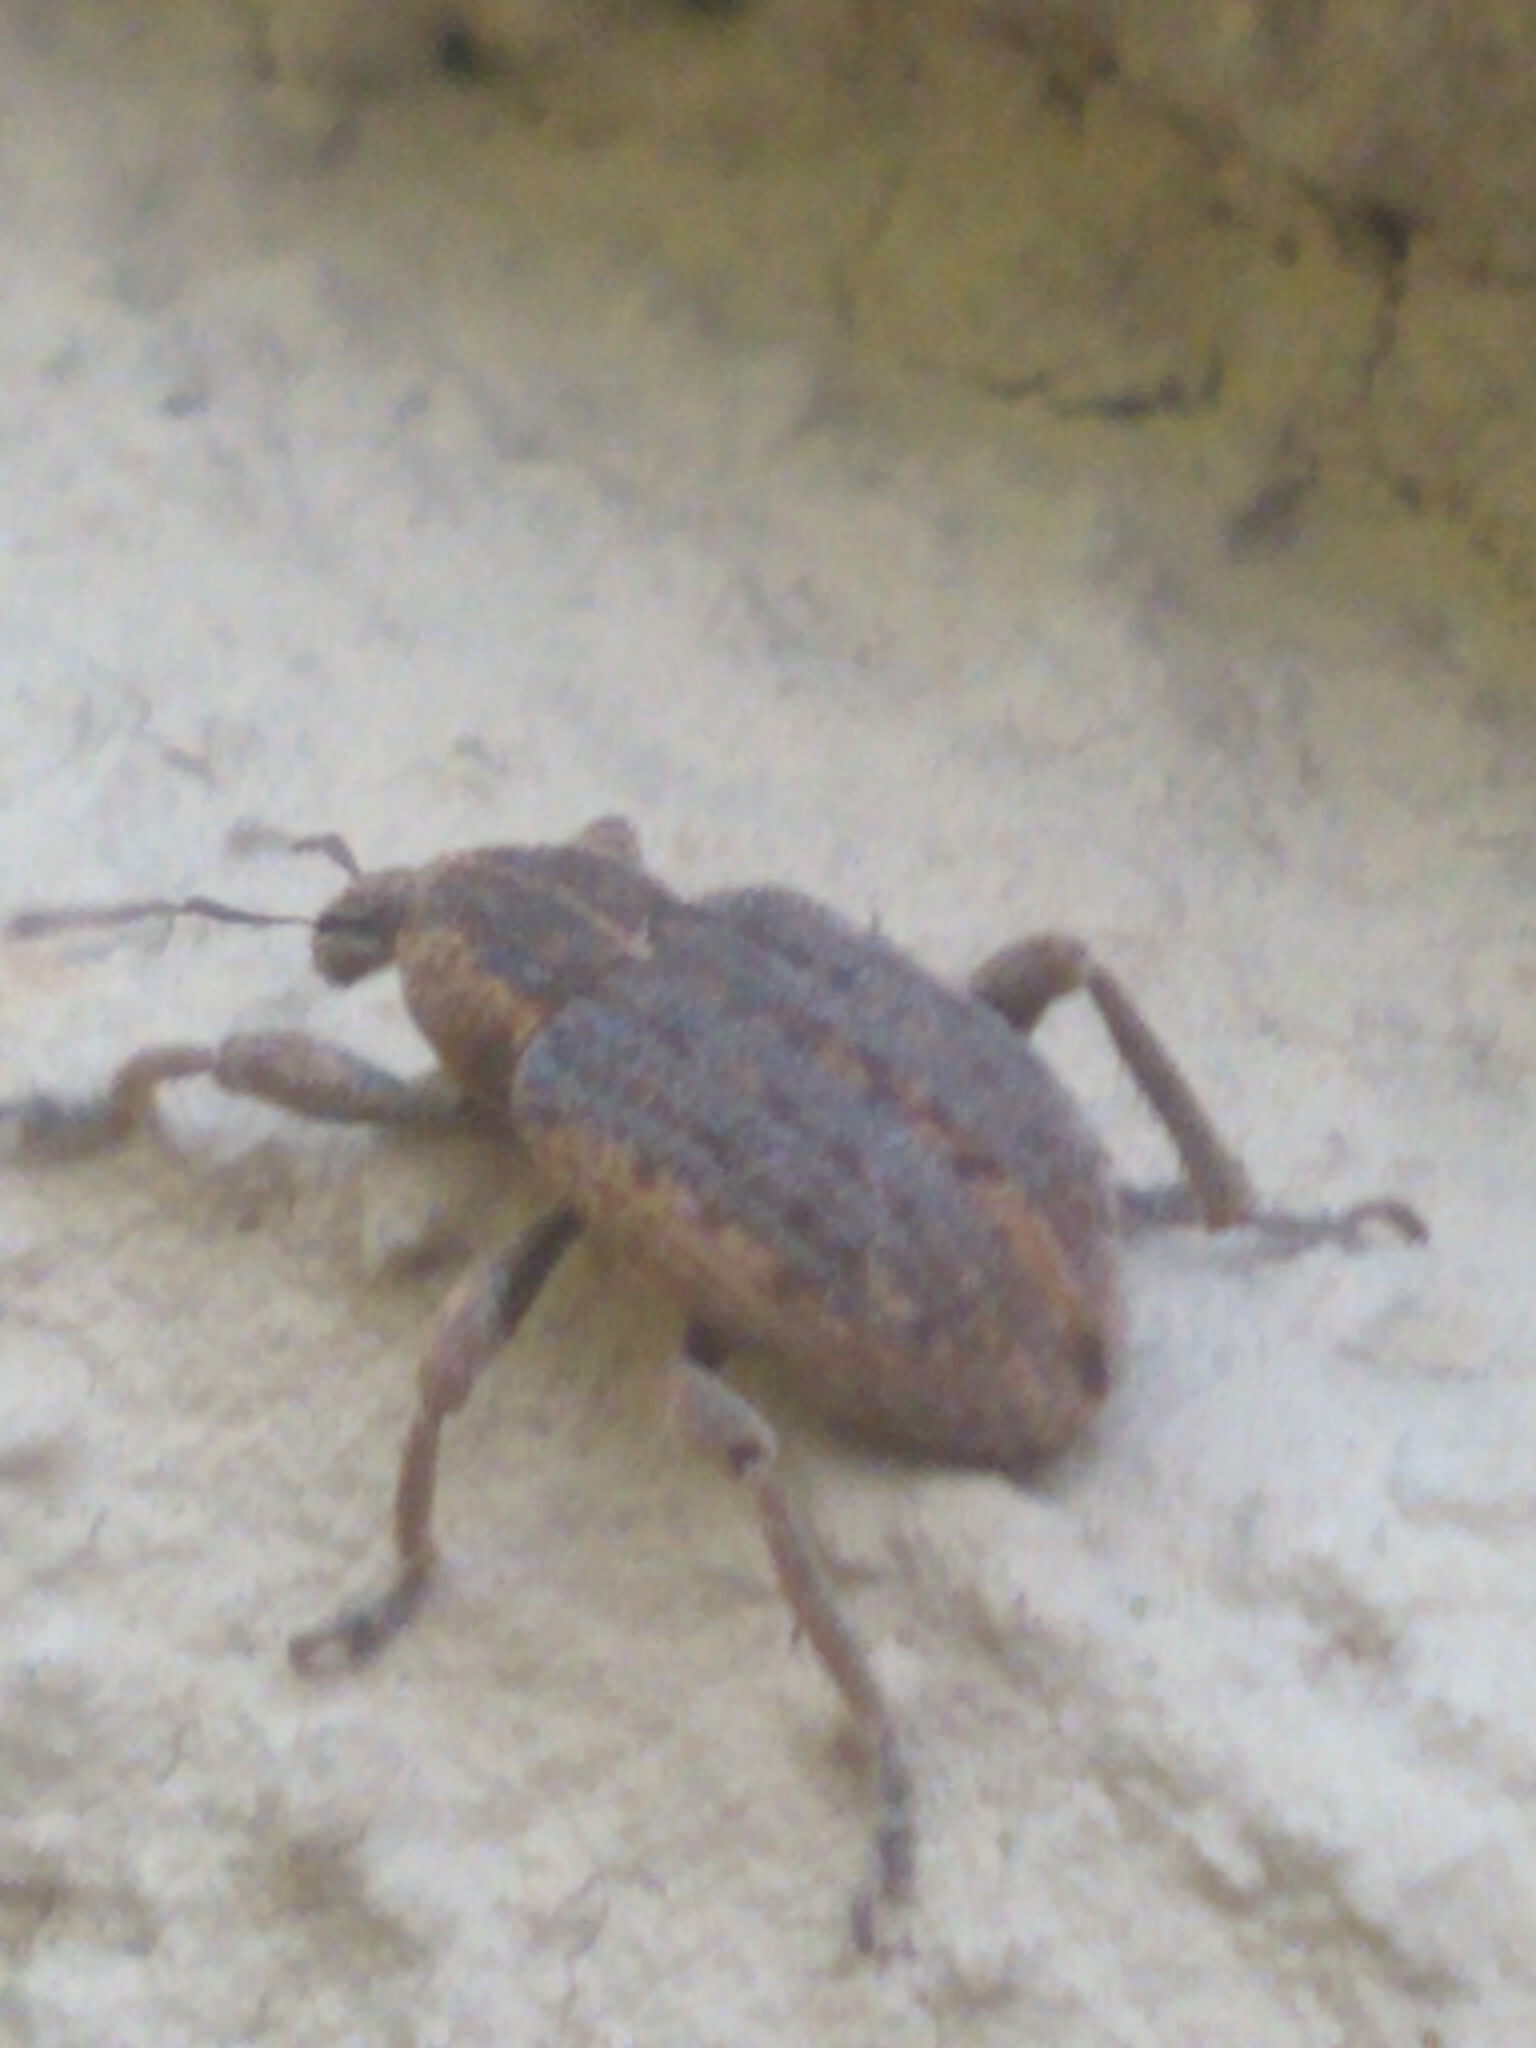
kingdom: Animalia
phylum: Arthropoda
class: Insecta
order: Coleoptera
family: Curculionidae
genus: Brachypera
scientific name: Brachypera zoilus
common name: Clover leaf weevil
